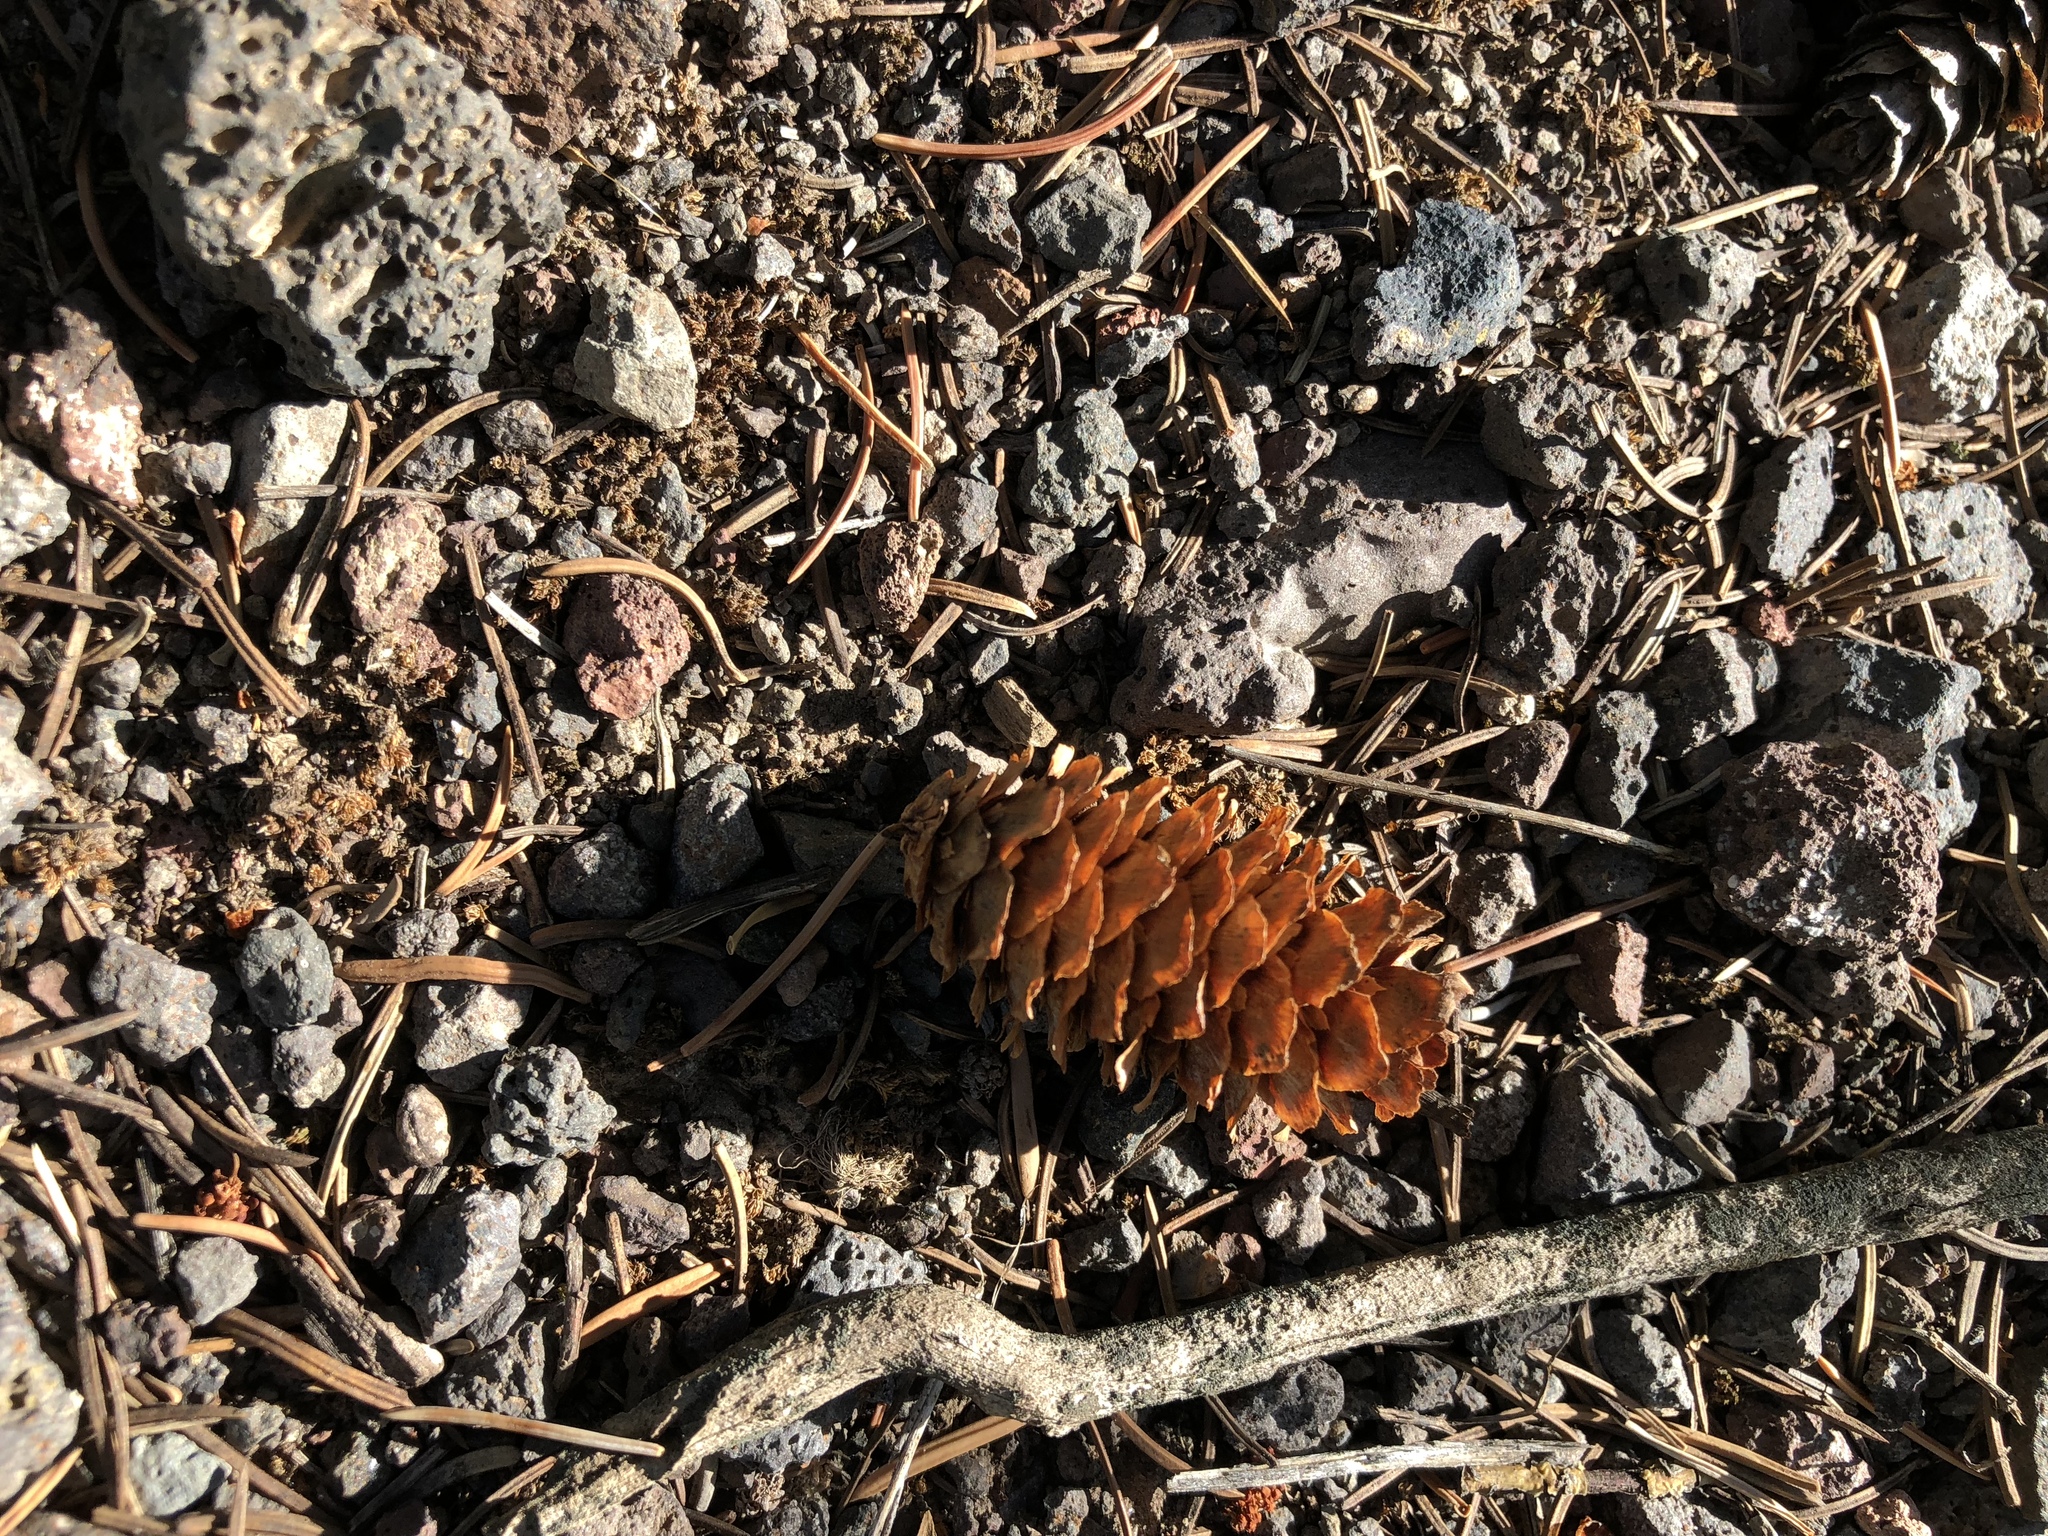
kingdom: Plantae
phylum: Tracheophyta
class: Pinopsida
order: Pinales
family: Pinaceae
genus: Picea
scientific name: Picea engelmannii
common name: Engelmann spruce
